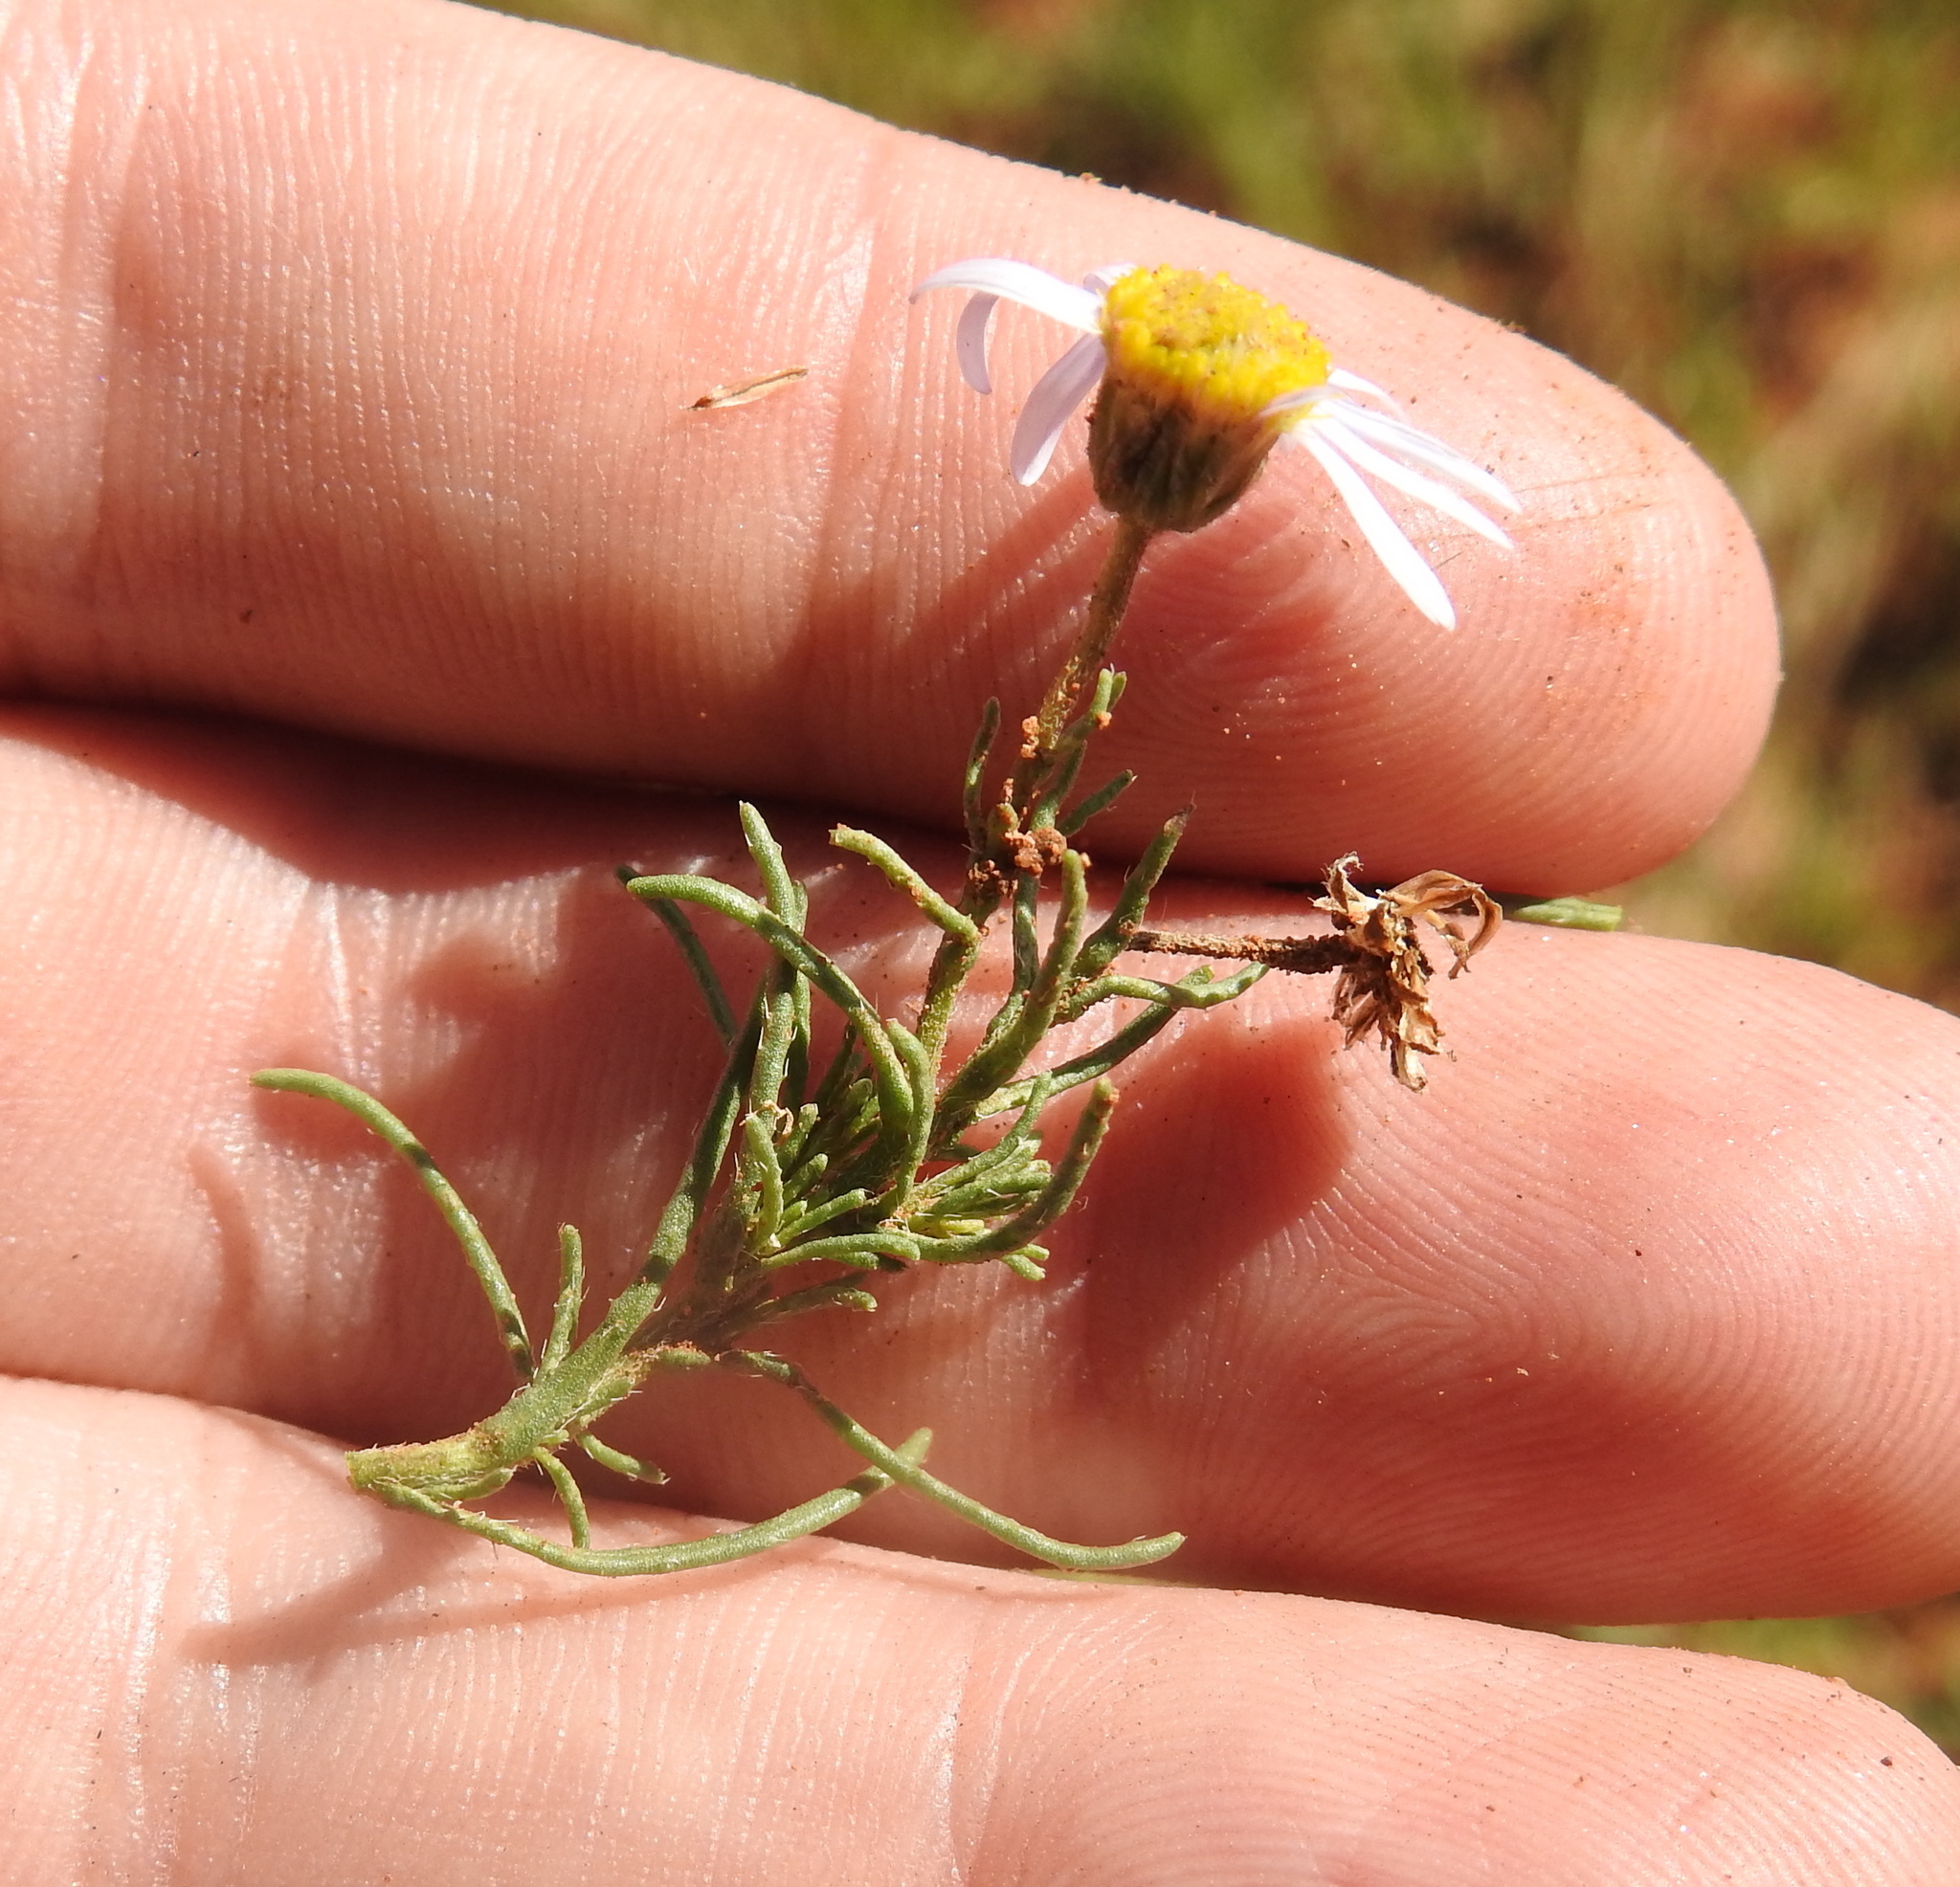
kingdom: Plantae
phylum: Tracheophyta
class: Magnoliopsida
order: Asterales
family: Asteraceae
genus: Felicia
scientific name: Felicia muricata
